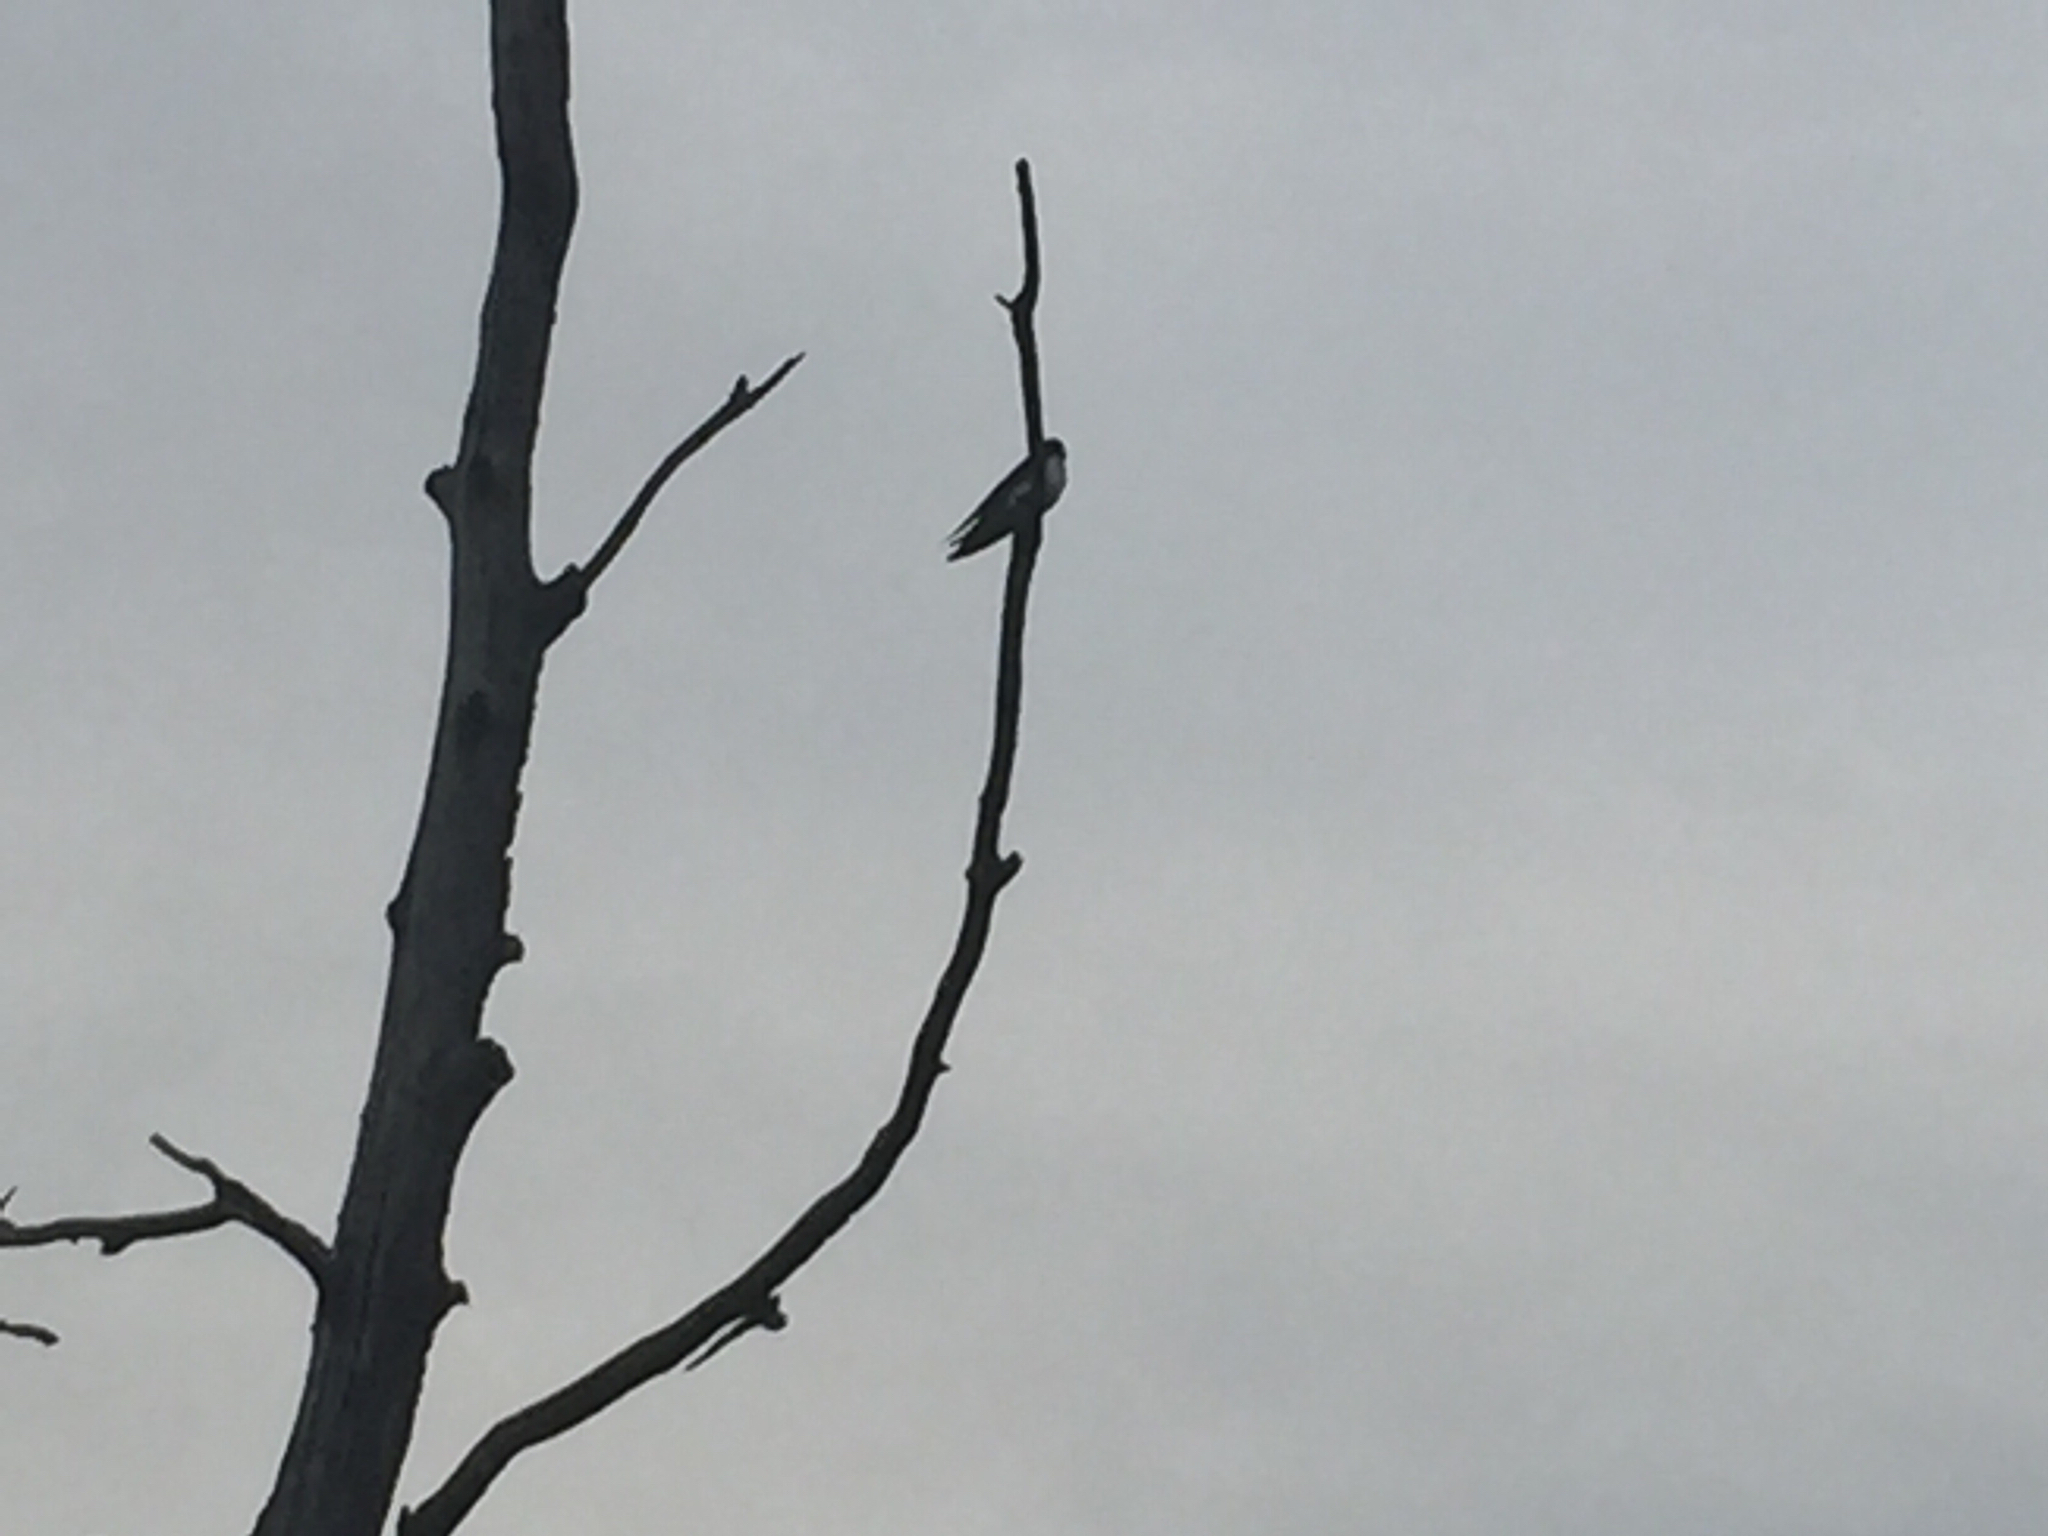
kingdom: Animalia
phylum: Chordata
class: Aves
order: Passeriformes
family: Hirundinidae
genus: Tachycineta
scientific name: Tachycineta bicolor
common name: Tree swallow
